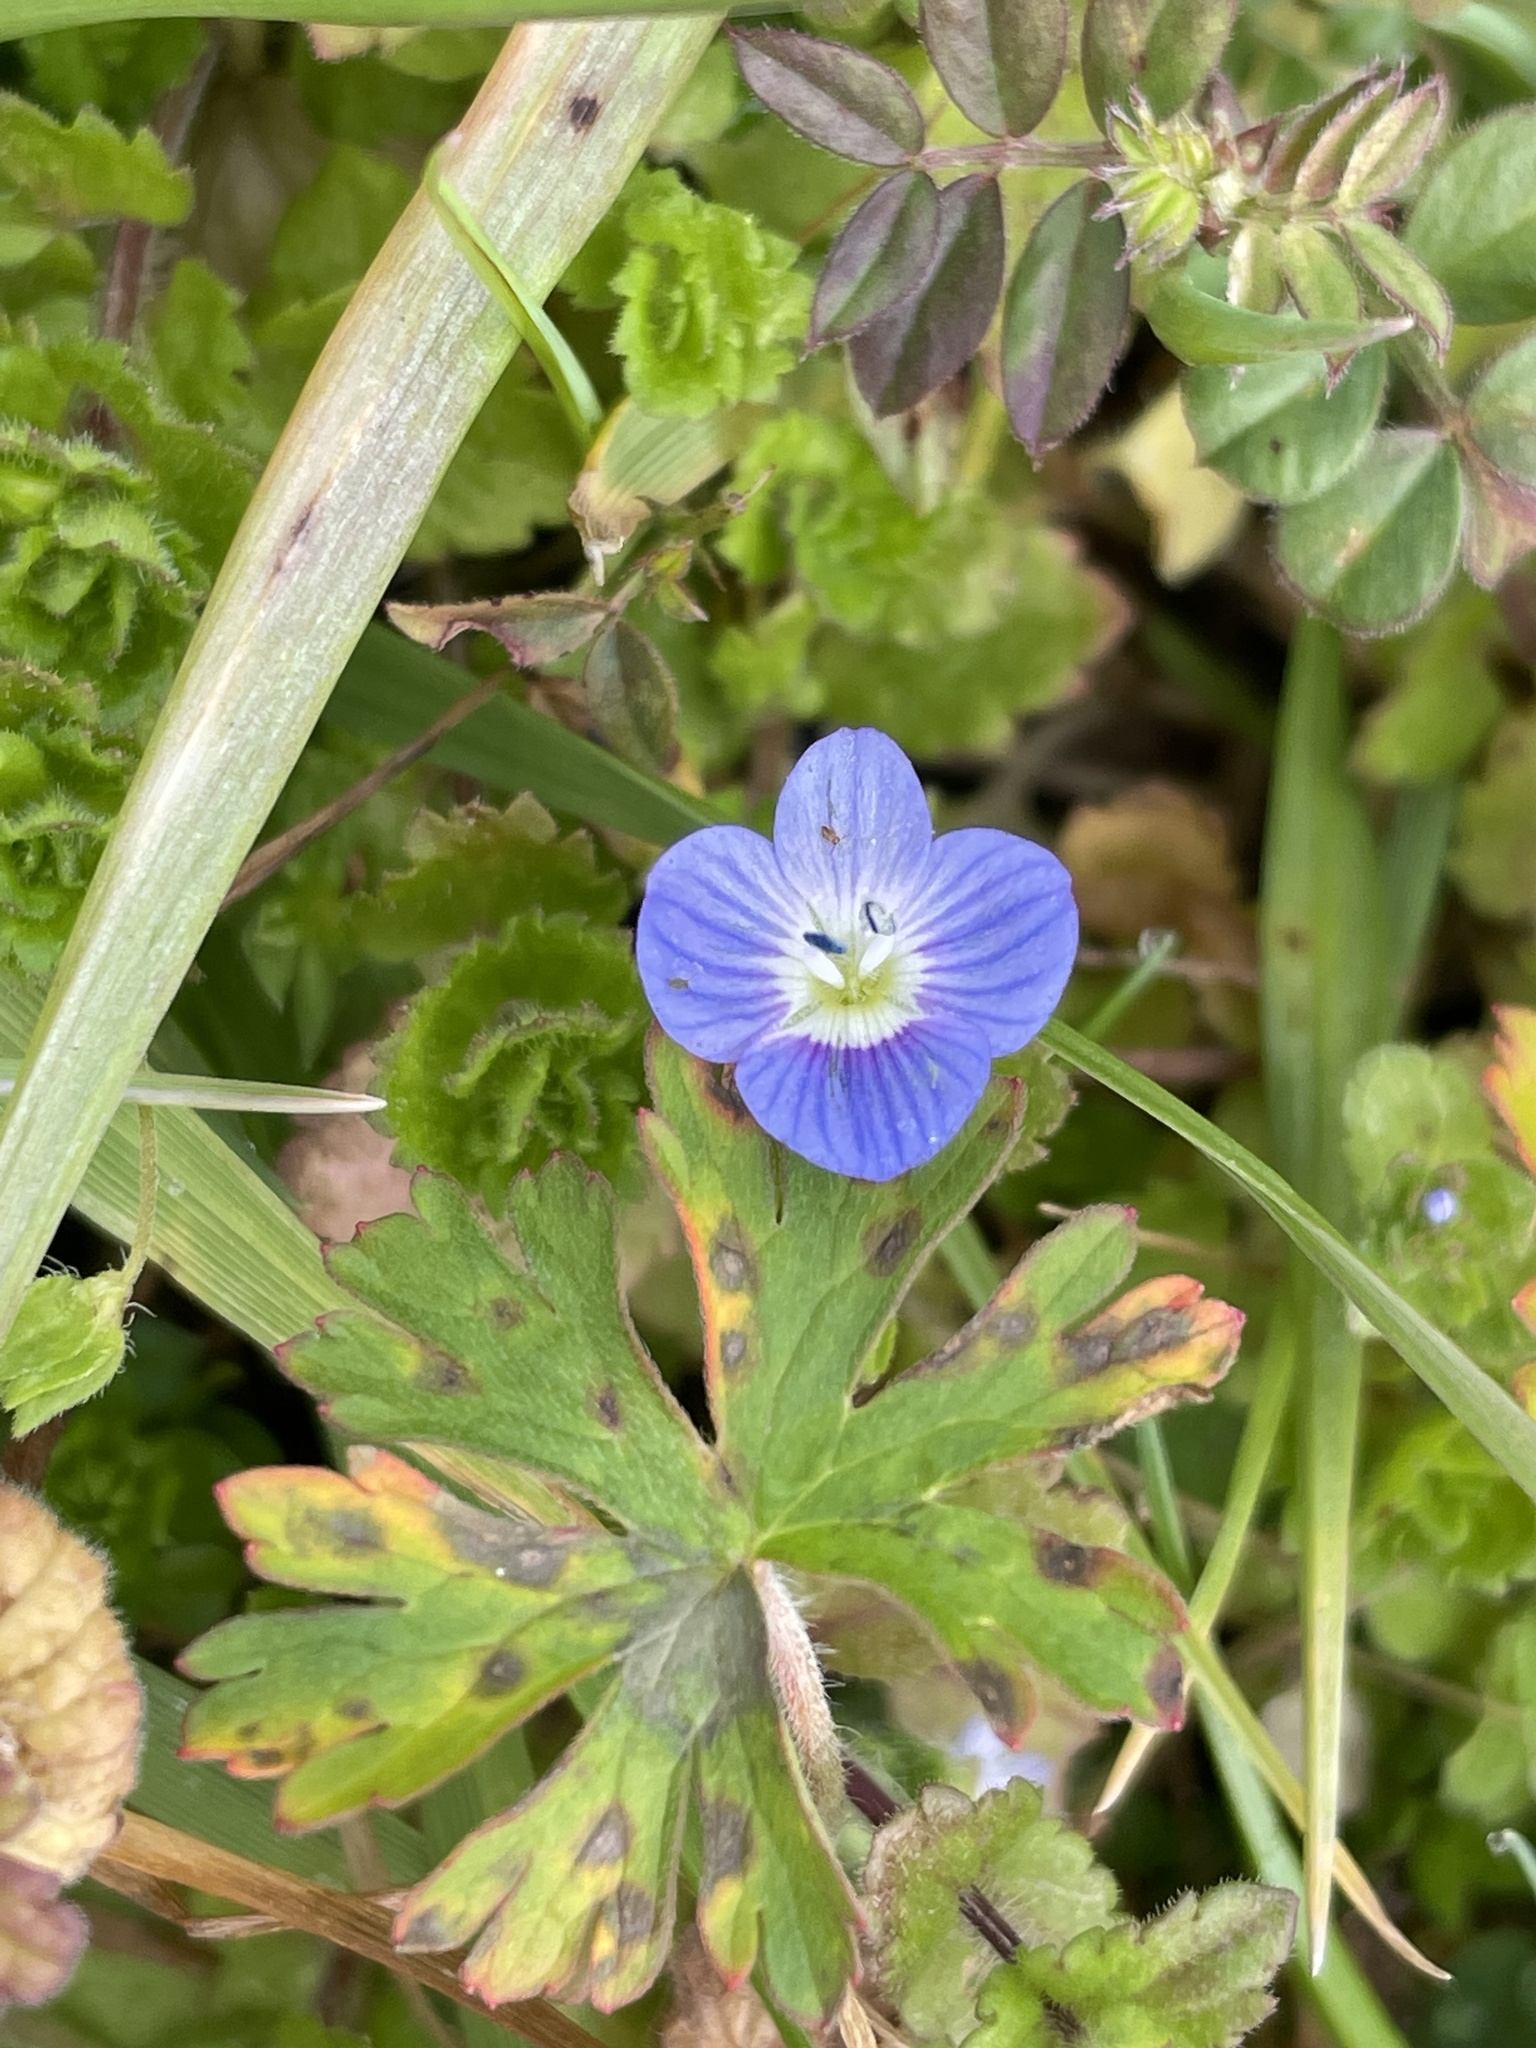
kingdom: Plantae
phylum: Tracheophyta
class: Magnoliopsida
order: Lamiales
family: Plantaginaceae
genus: Veronica
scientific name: Veronica persica
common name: Common field-speedwell
